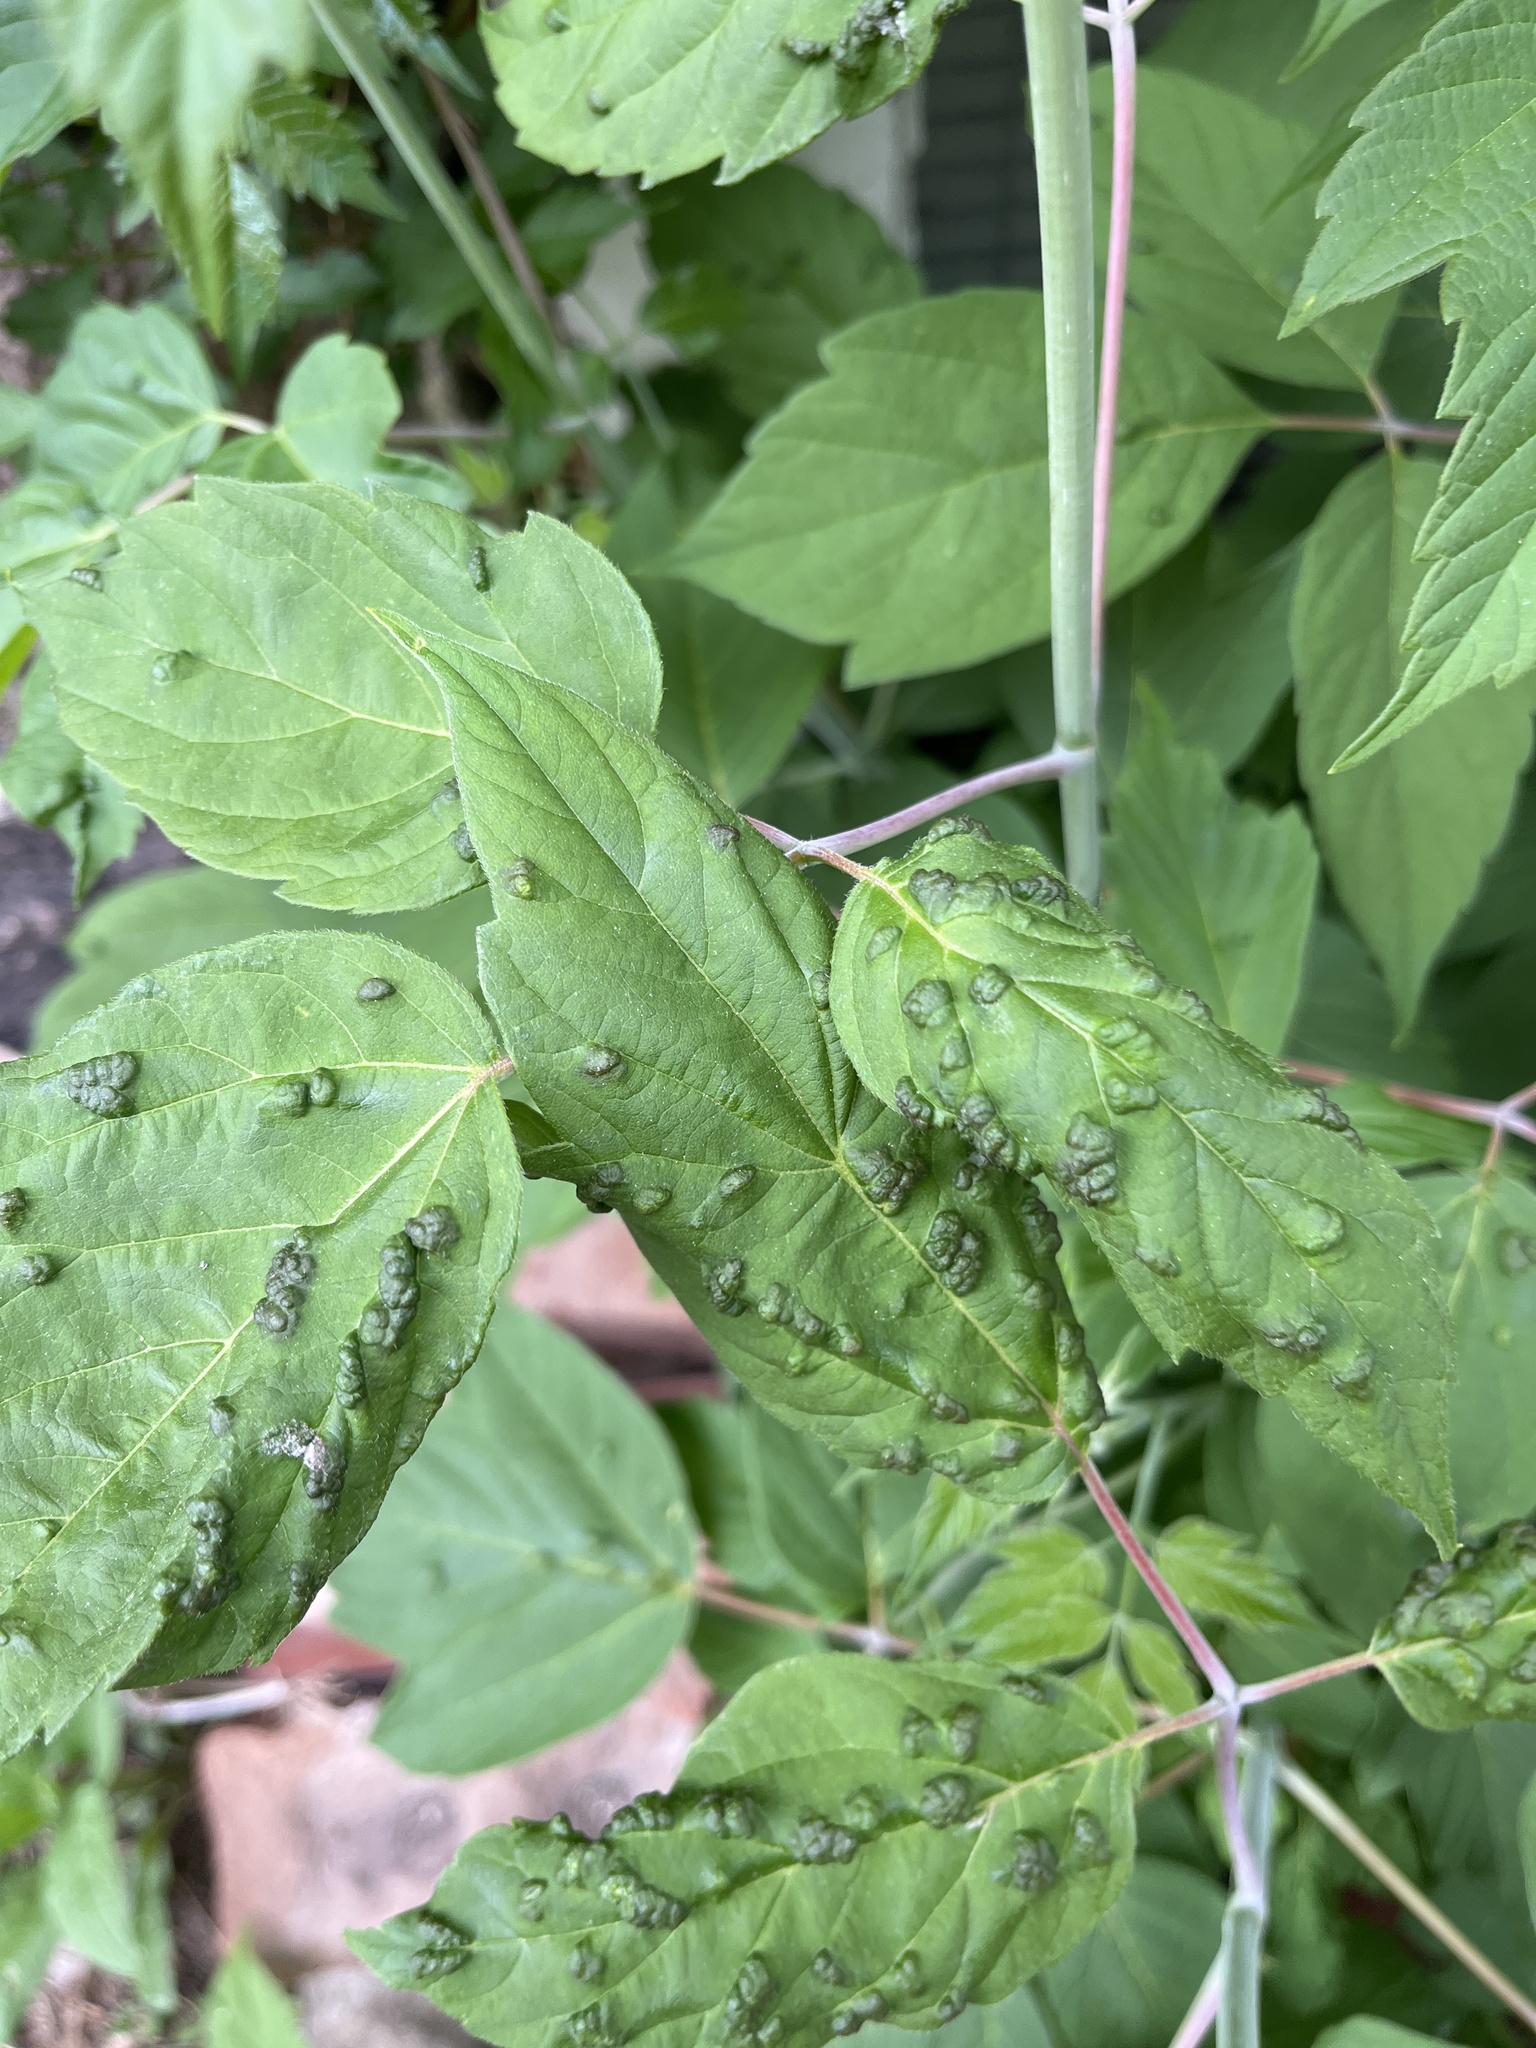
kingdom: Animalia
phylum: Arthropoda
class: Arachnida
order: Trombidiformes
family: Eriophyidae
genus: Aceria
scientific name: Aceria
